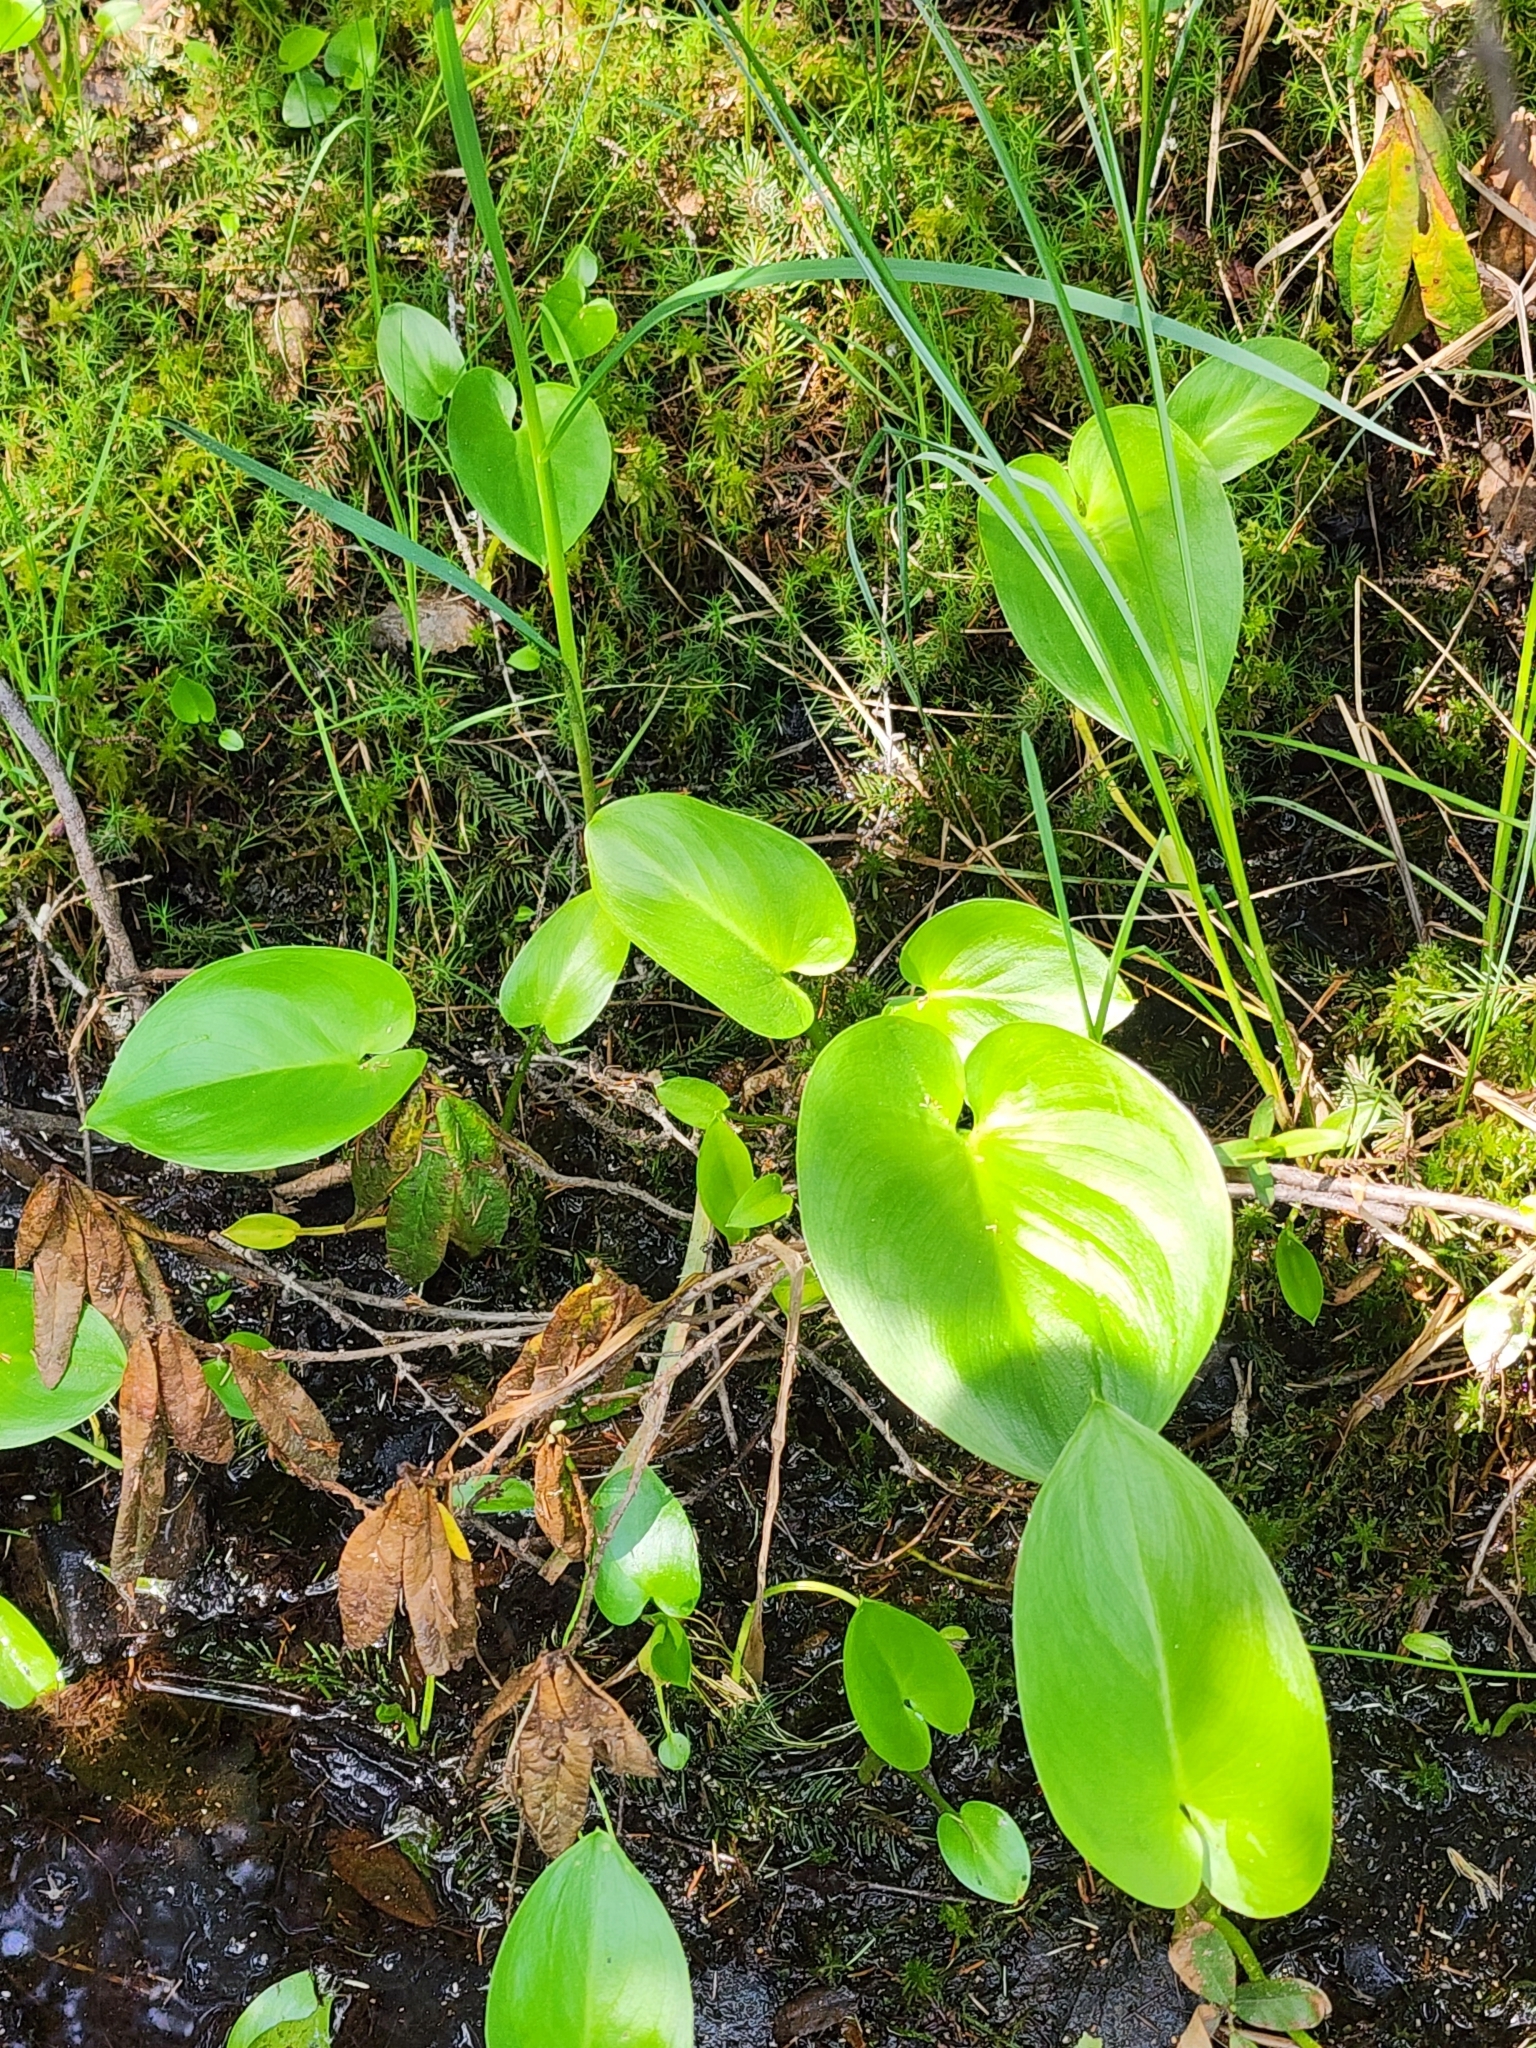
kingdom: Plantae
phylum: Tracheophyta
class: Liliopsida
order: Alismatales
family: Araceae
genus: Calla
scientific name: Calla palustris
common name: Bog arum
